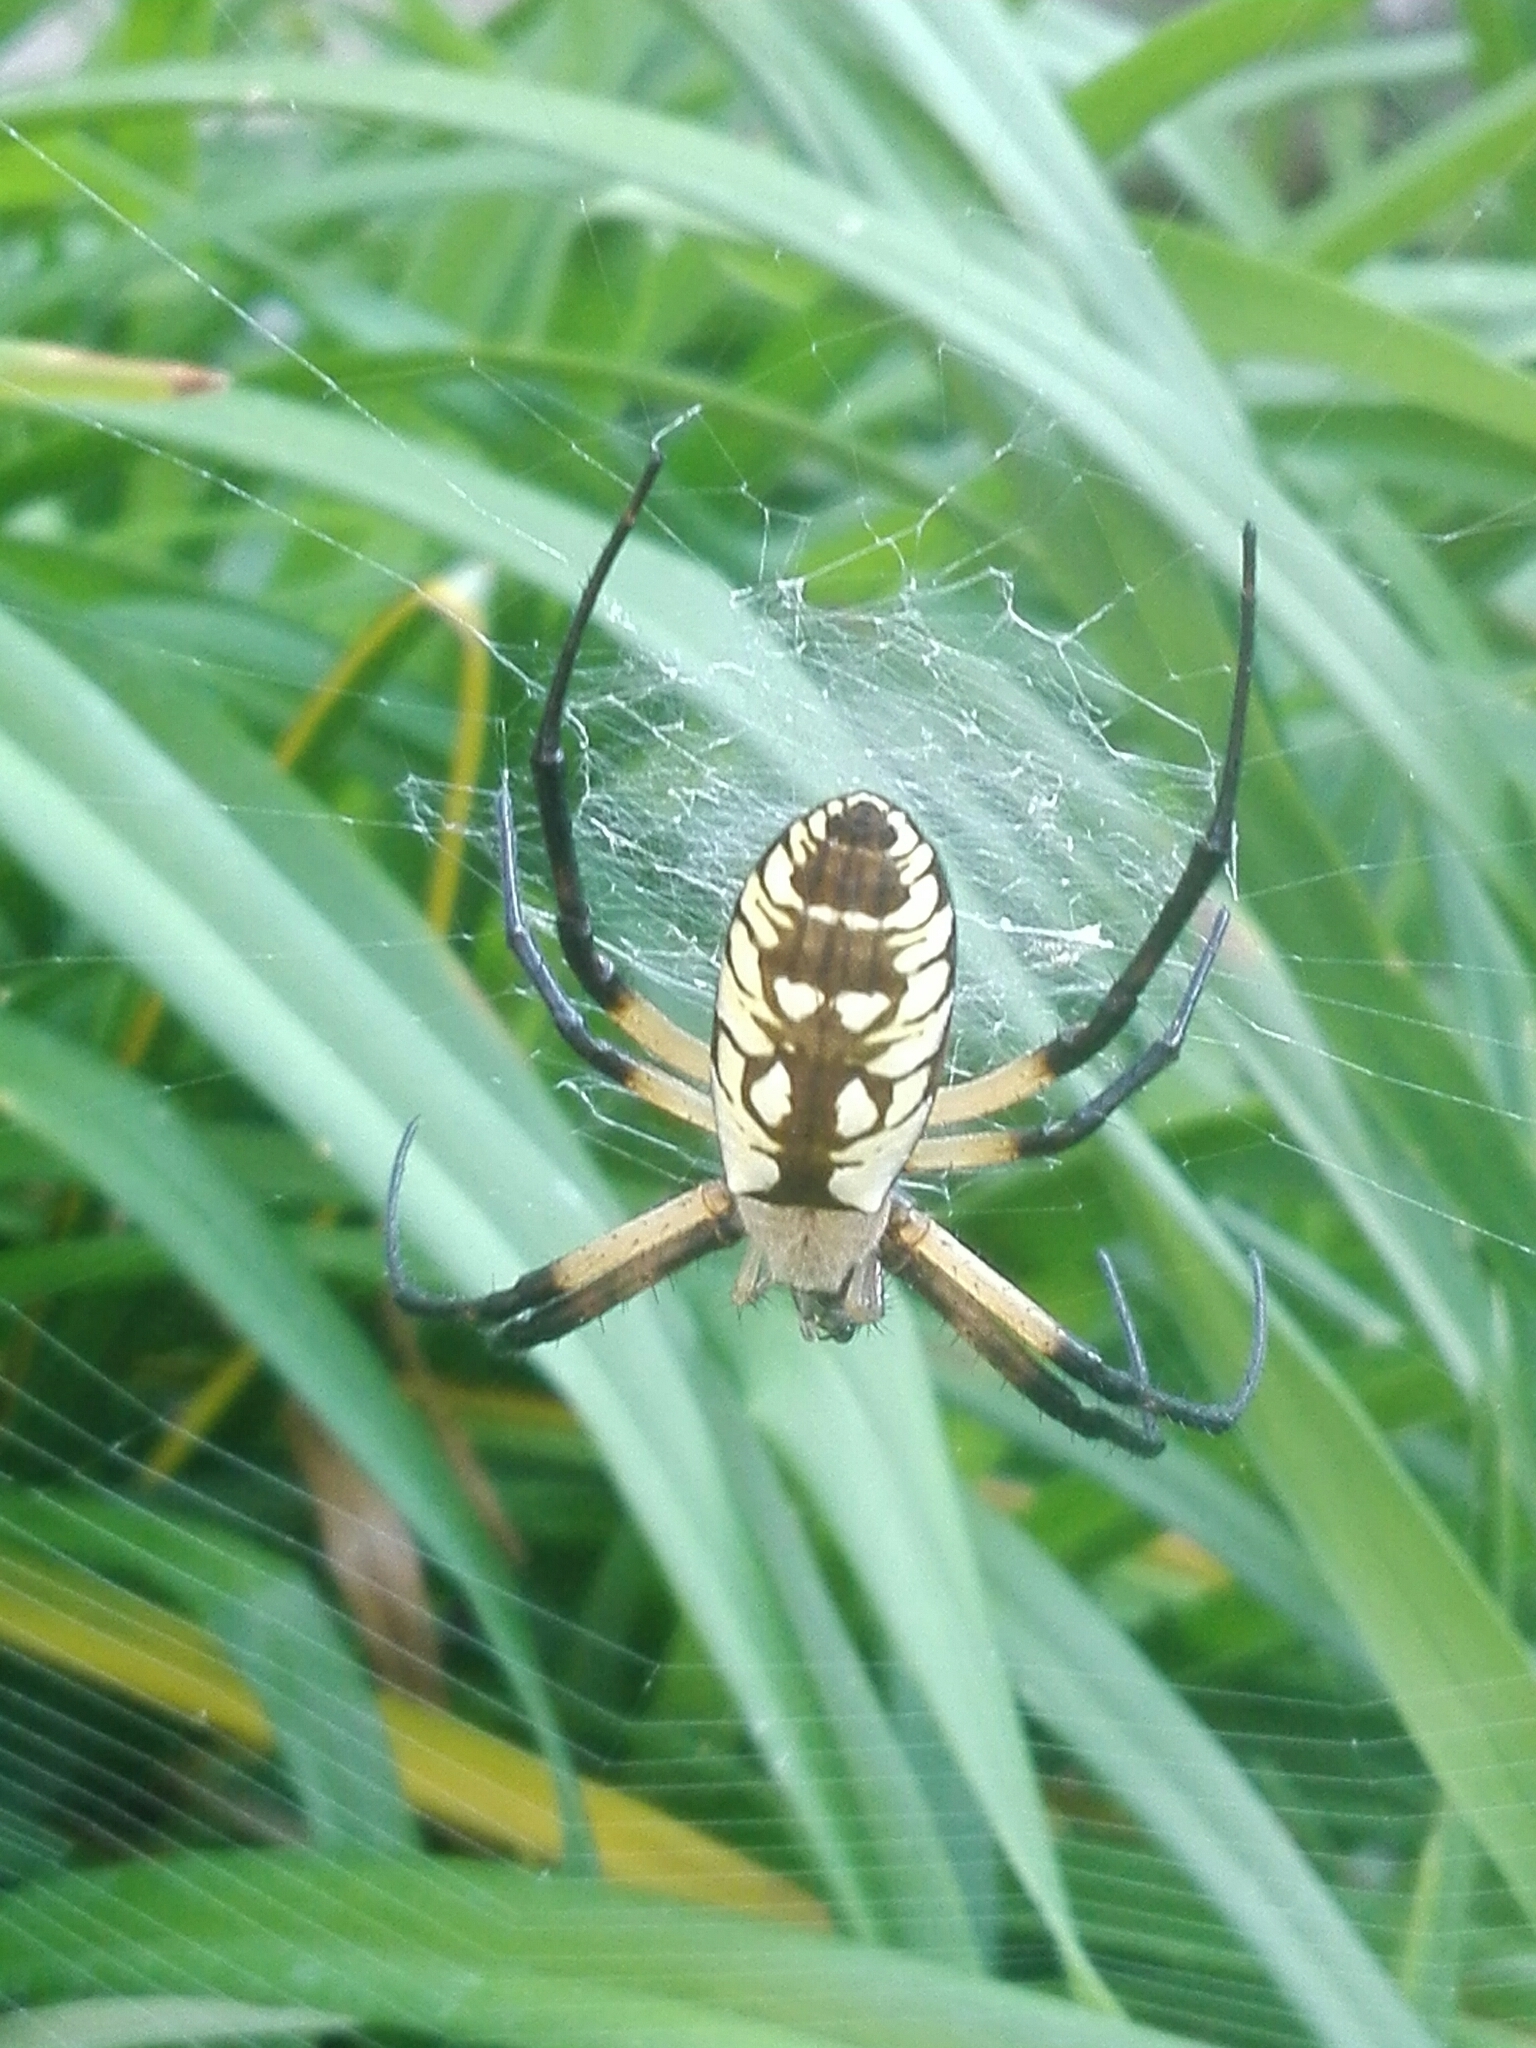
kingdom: Animalia
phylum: Arthropoda
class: Arachnida
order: Araneae
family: Araneidae
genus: Argiope
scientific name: Argiope aurantia
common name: Orb weavers
